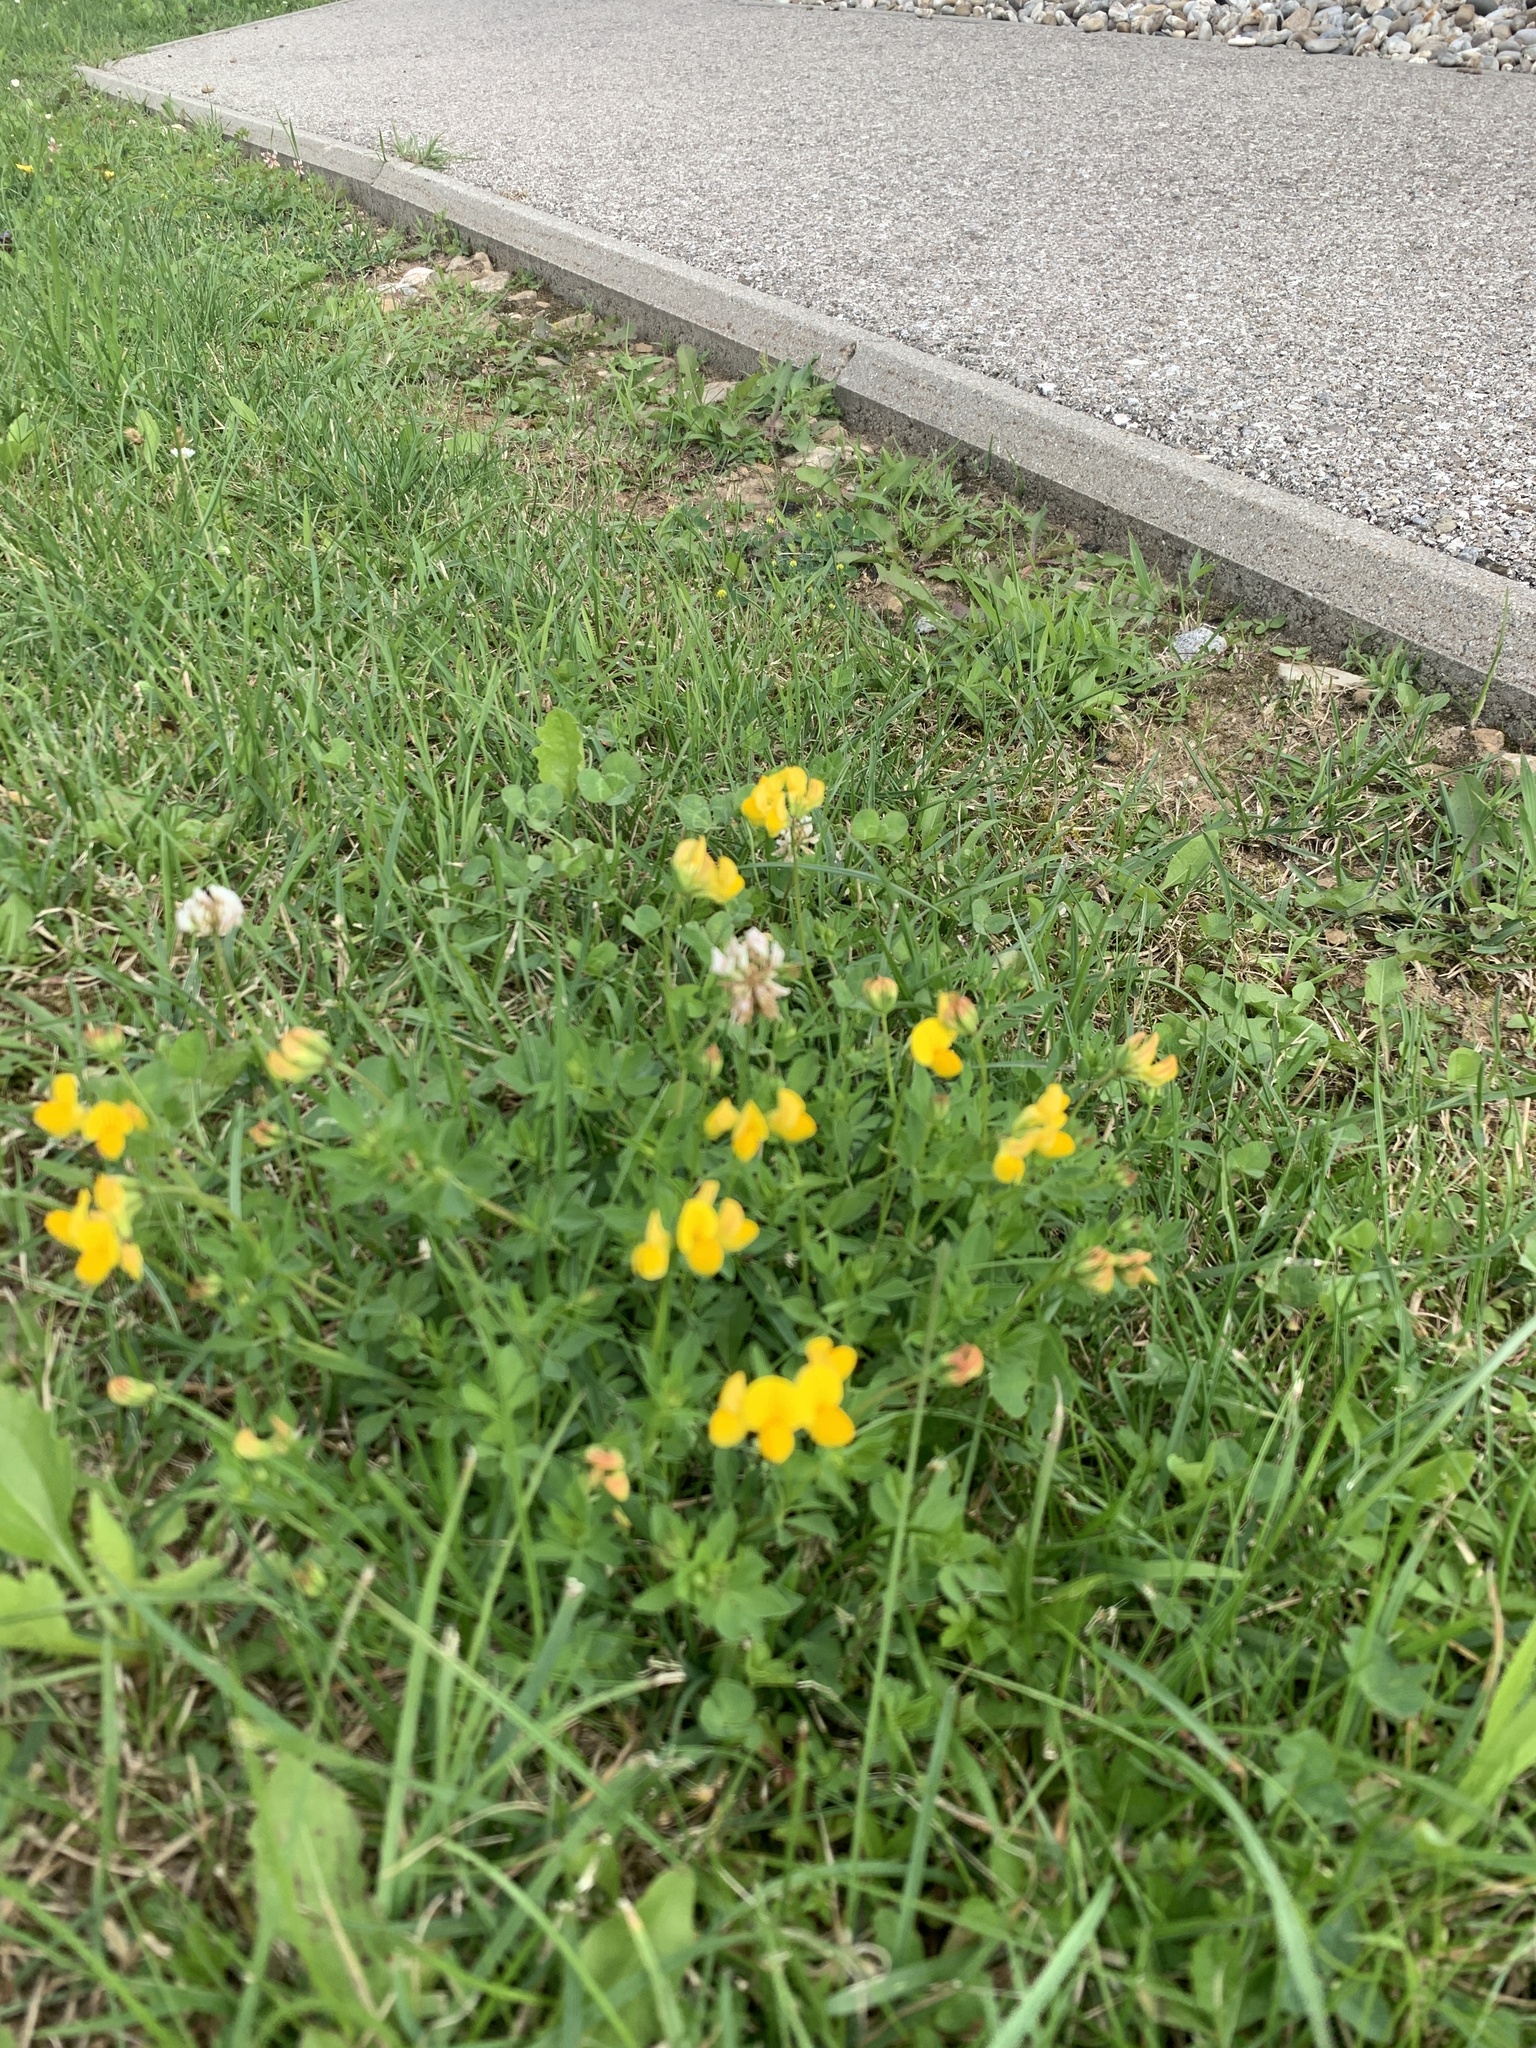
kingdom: Plantae
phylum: Tracheophyta
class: Magnoliopsida
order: Fabales
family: Fabaceae
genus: Lotus
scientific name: Lotus corniculatus
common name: Common bird's-foot-trefoil
